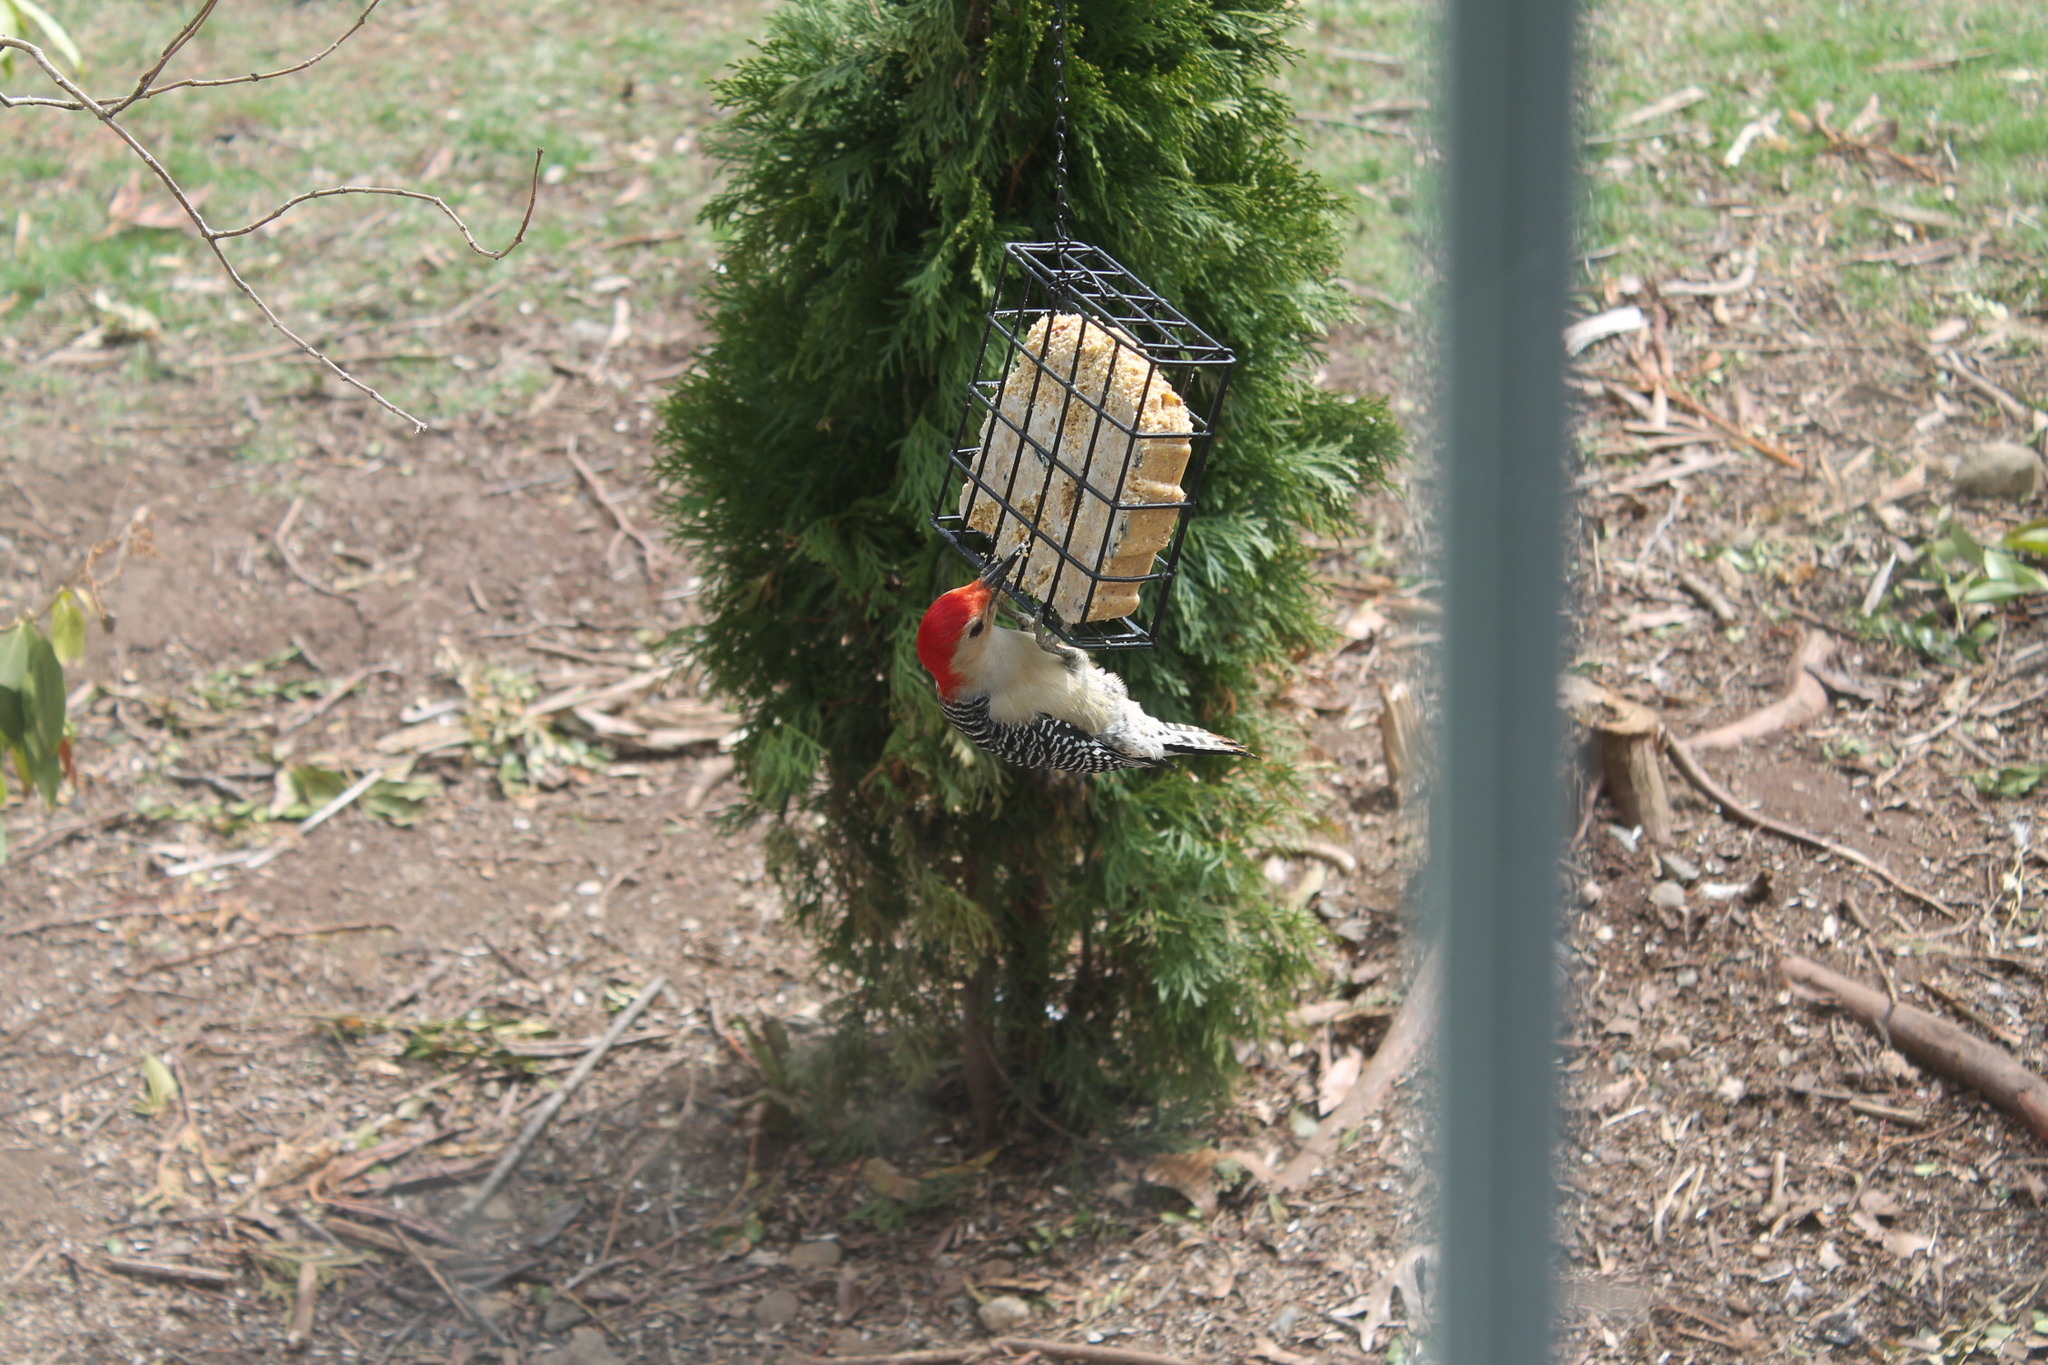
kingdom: Animalia
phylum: Chordata
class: Aves
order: Piciformes
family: Picidae
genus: Melanerpes
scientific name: Melanerpes carolinus
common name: Red-bellied woodpecker
